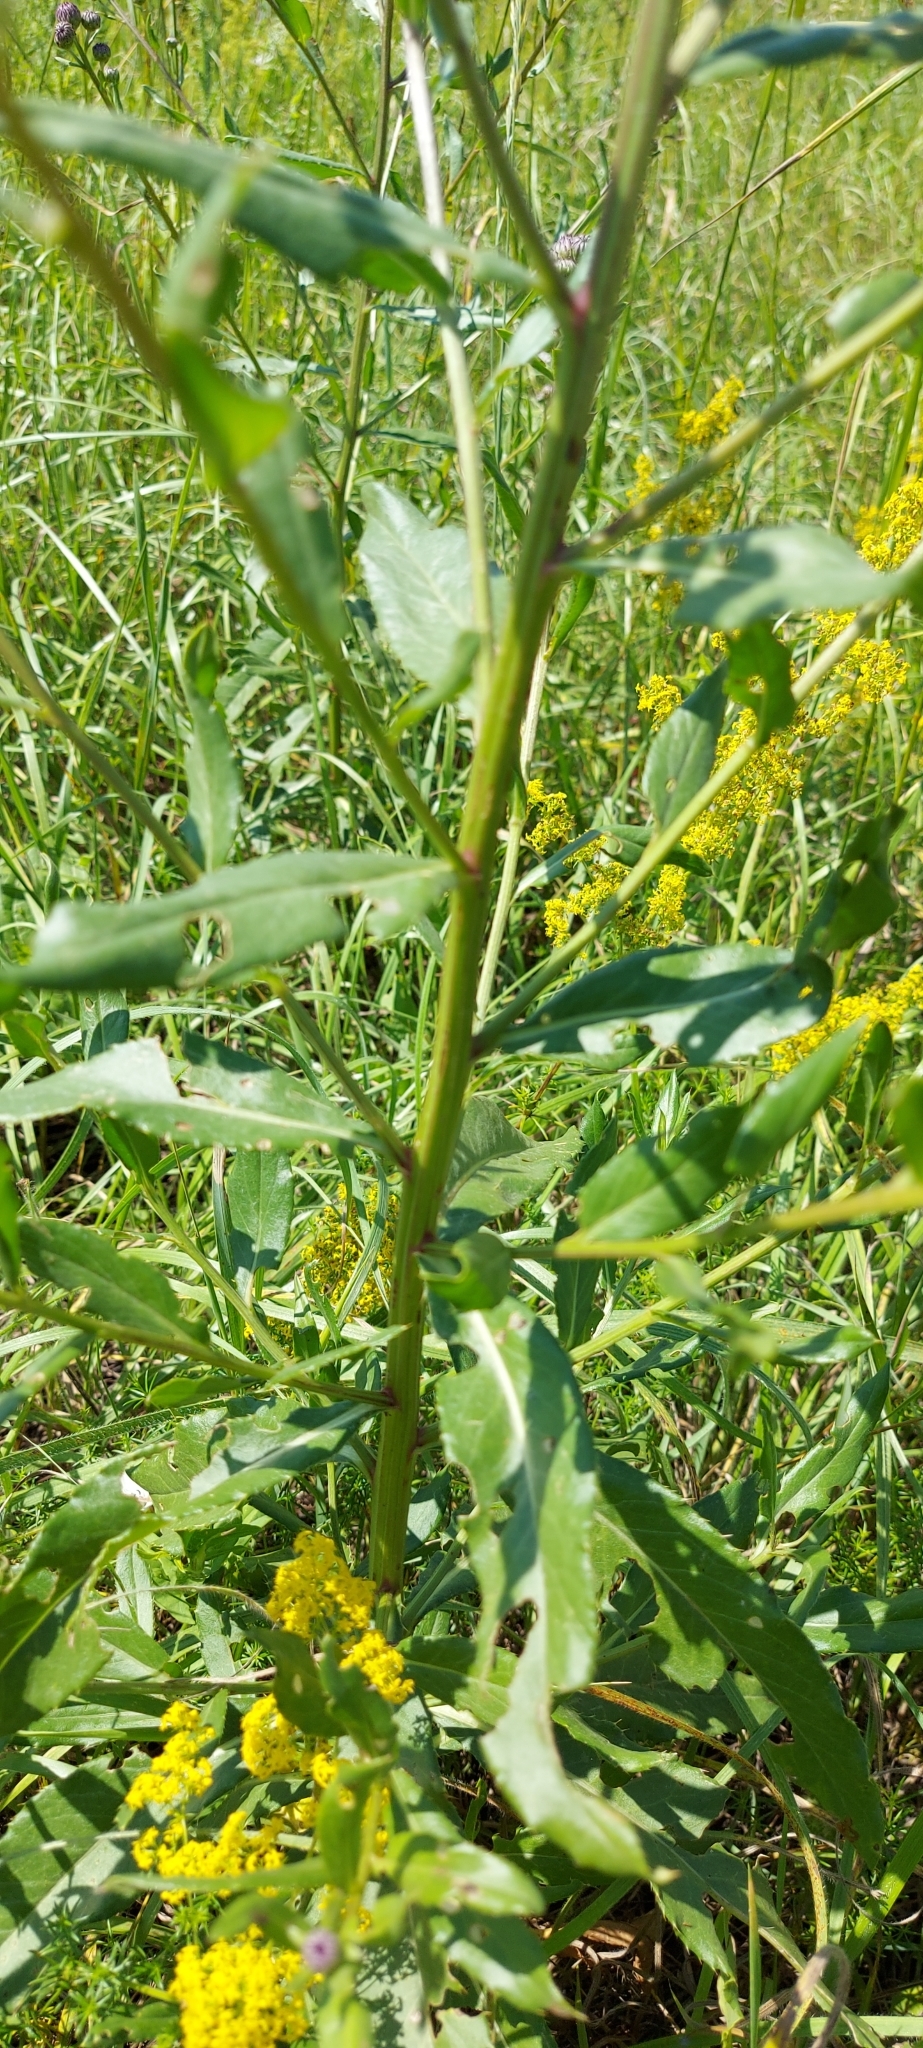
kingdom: Plantae
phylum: Tracheophyta
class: Magnoliopsida
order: Asterales
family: Asteraceae
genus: Cirsium
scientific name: Cirsium arvense
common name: Creeping thistle
